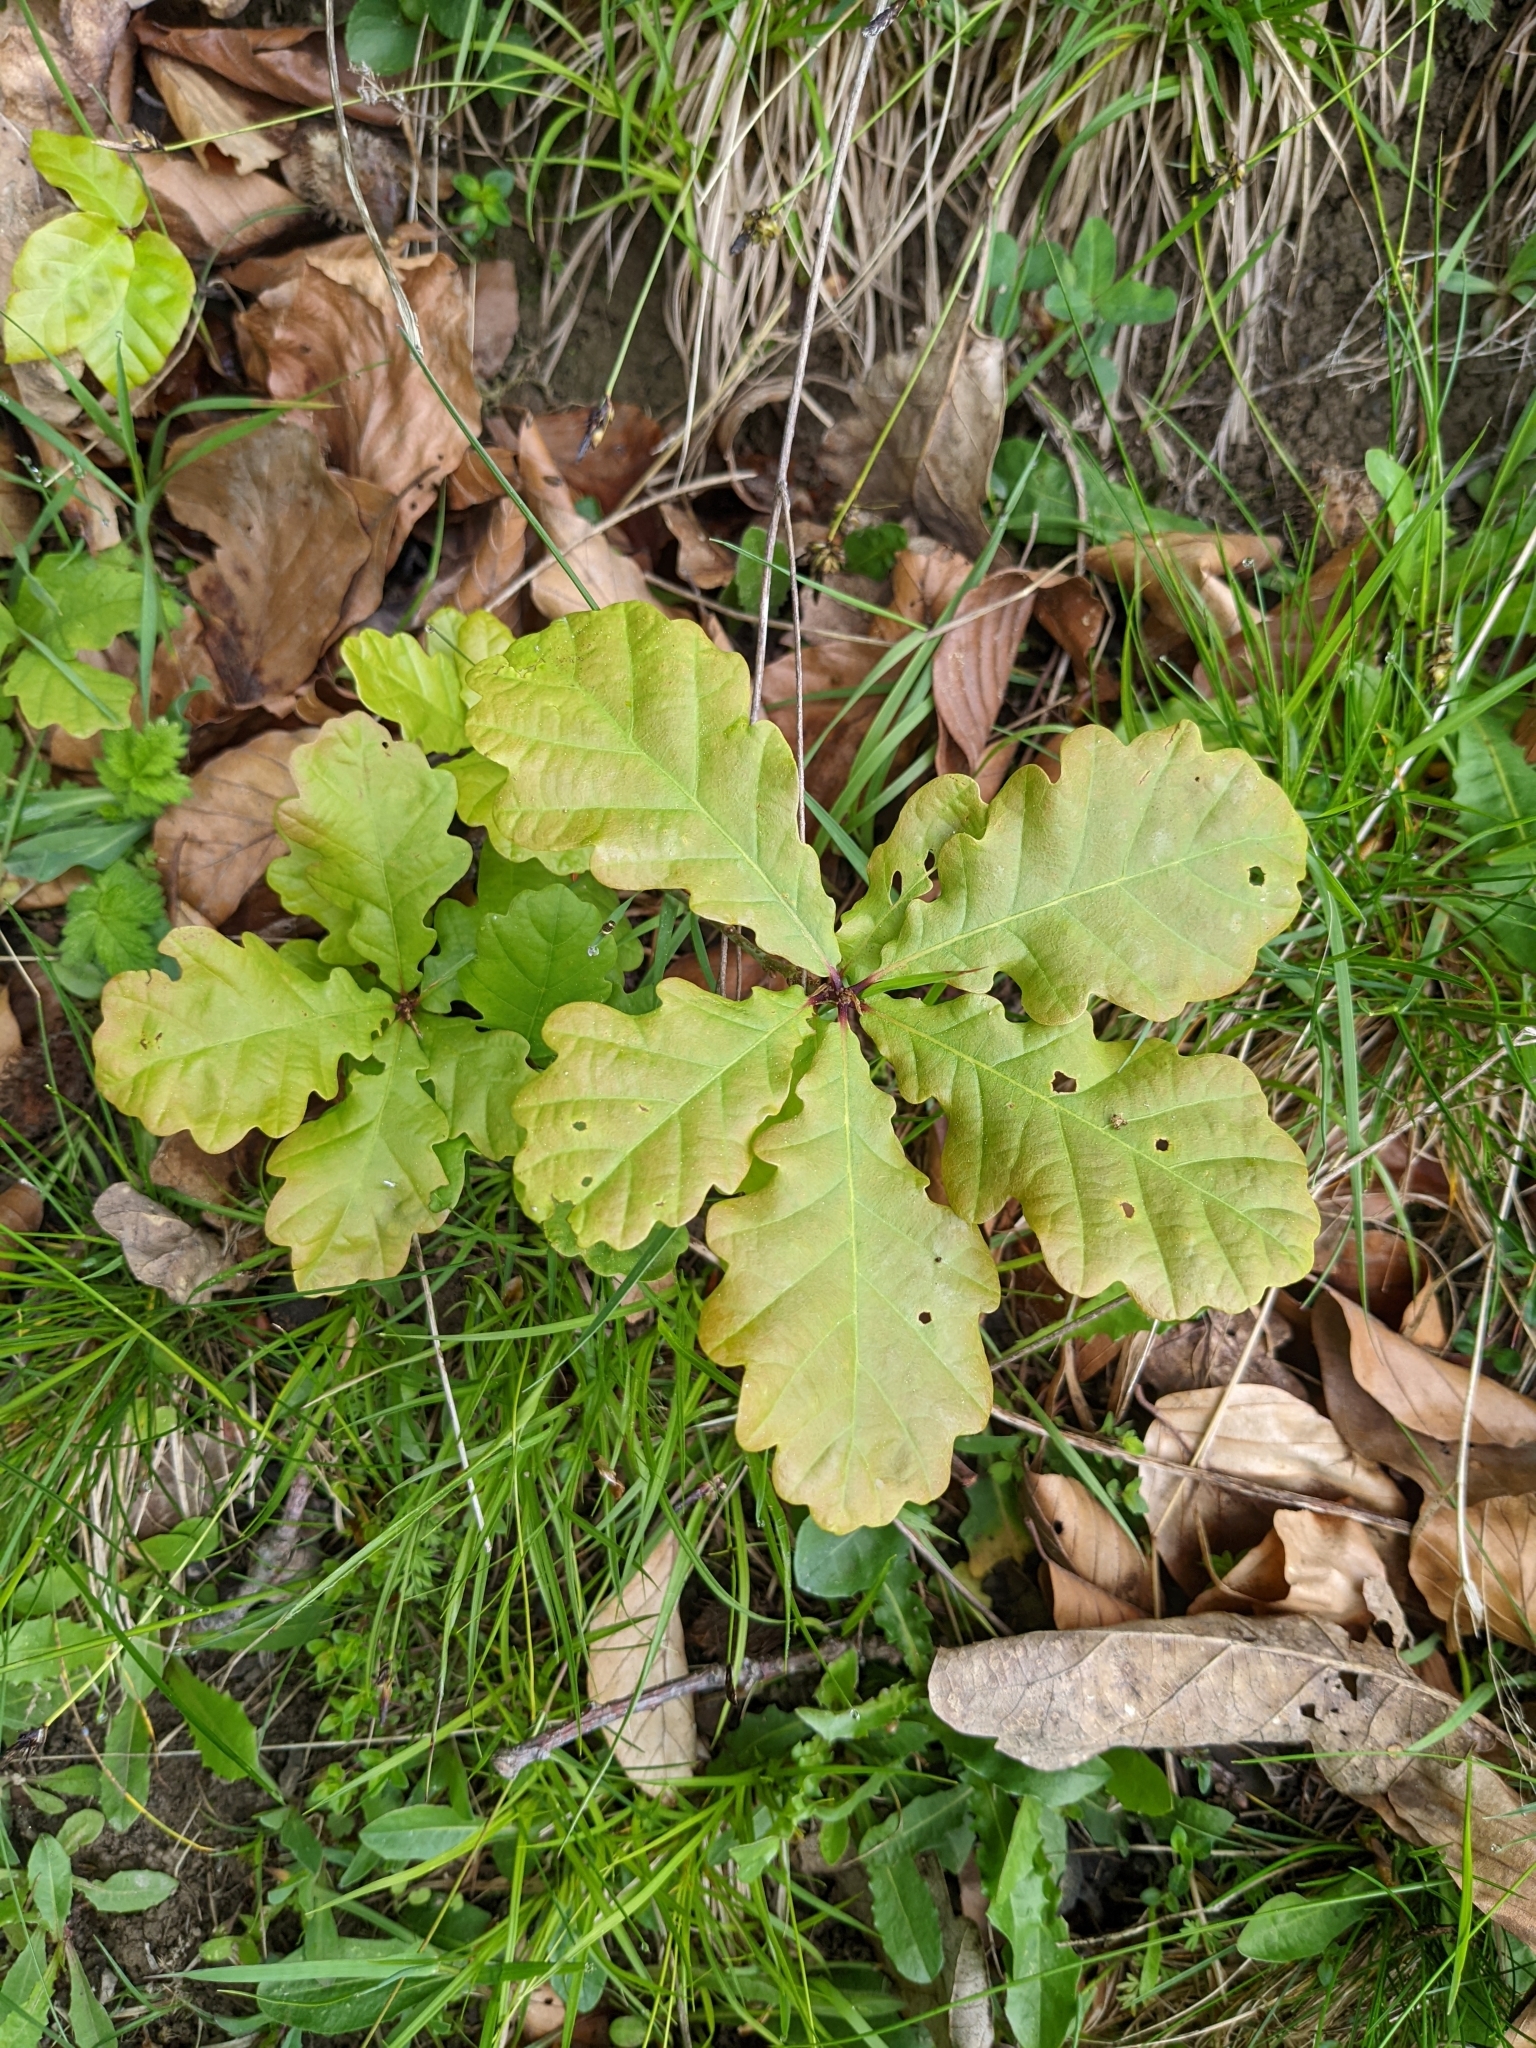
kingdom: Plantae
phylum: Tracheophyta
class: Magnoliopsida
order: Fagales
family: Fagaceae
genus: Quercus
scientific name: Quercus robur
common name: Pedunculate oak
